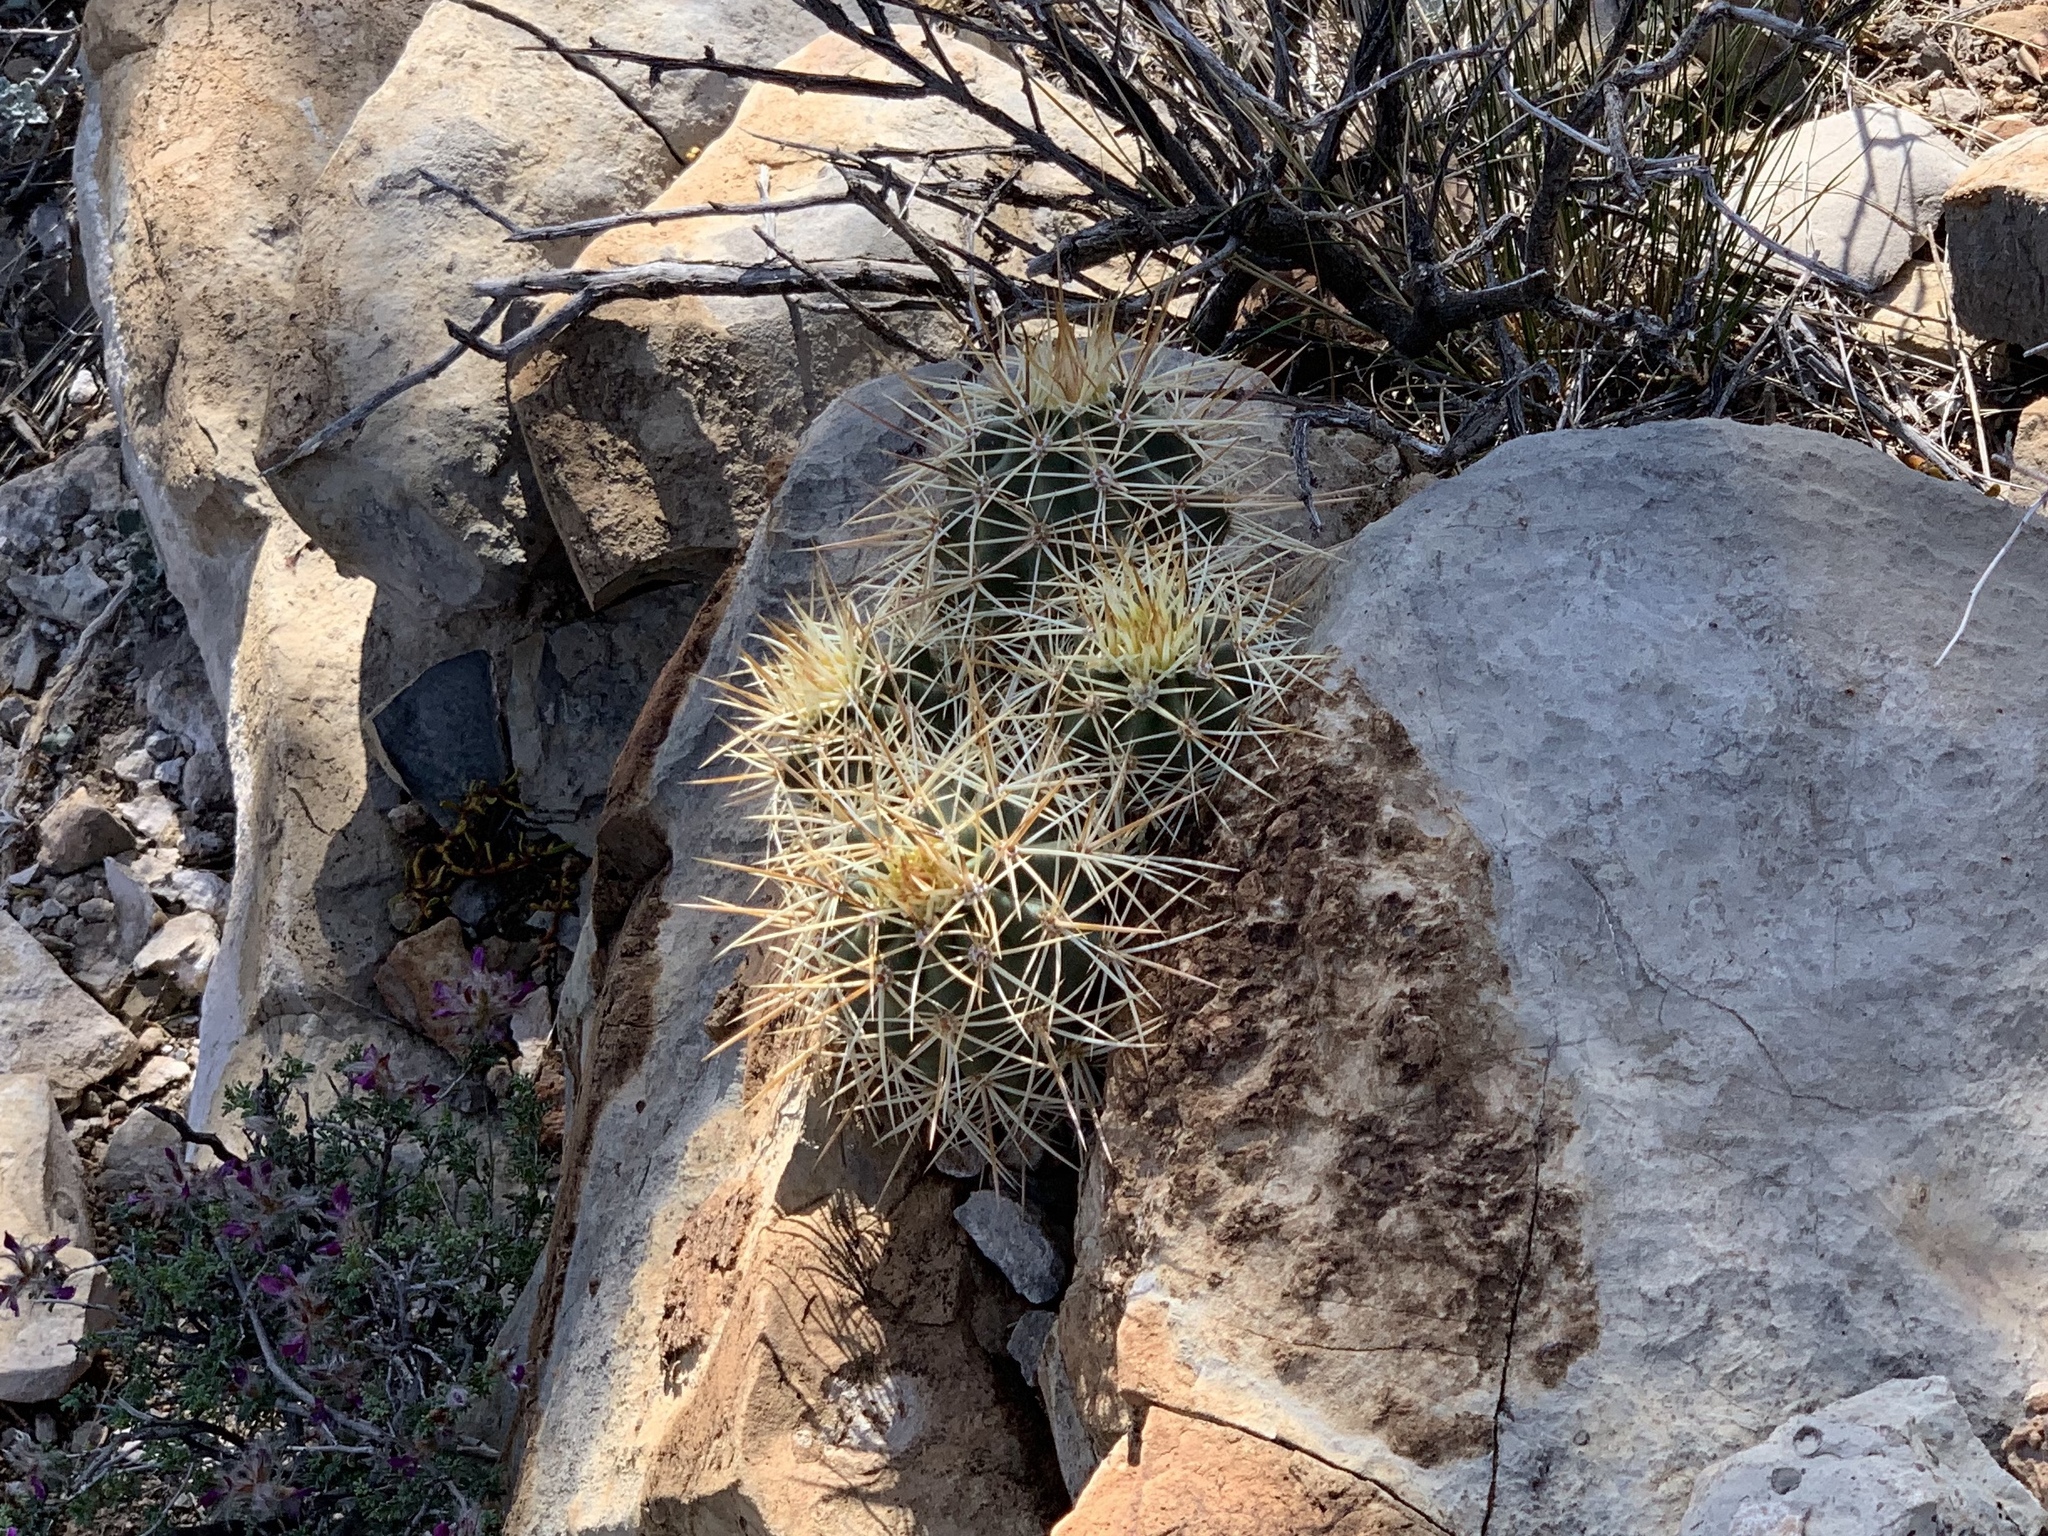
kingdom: Plantae
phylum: Tracheophyta
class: Magnoliopsida
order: Caryophyllales
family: Cactaceae
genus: Echinocereus
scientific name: Echinocereus coccineus
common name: Scarlet hedgehog cactus
